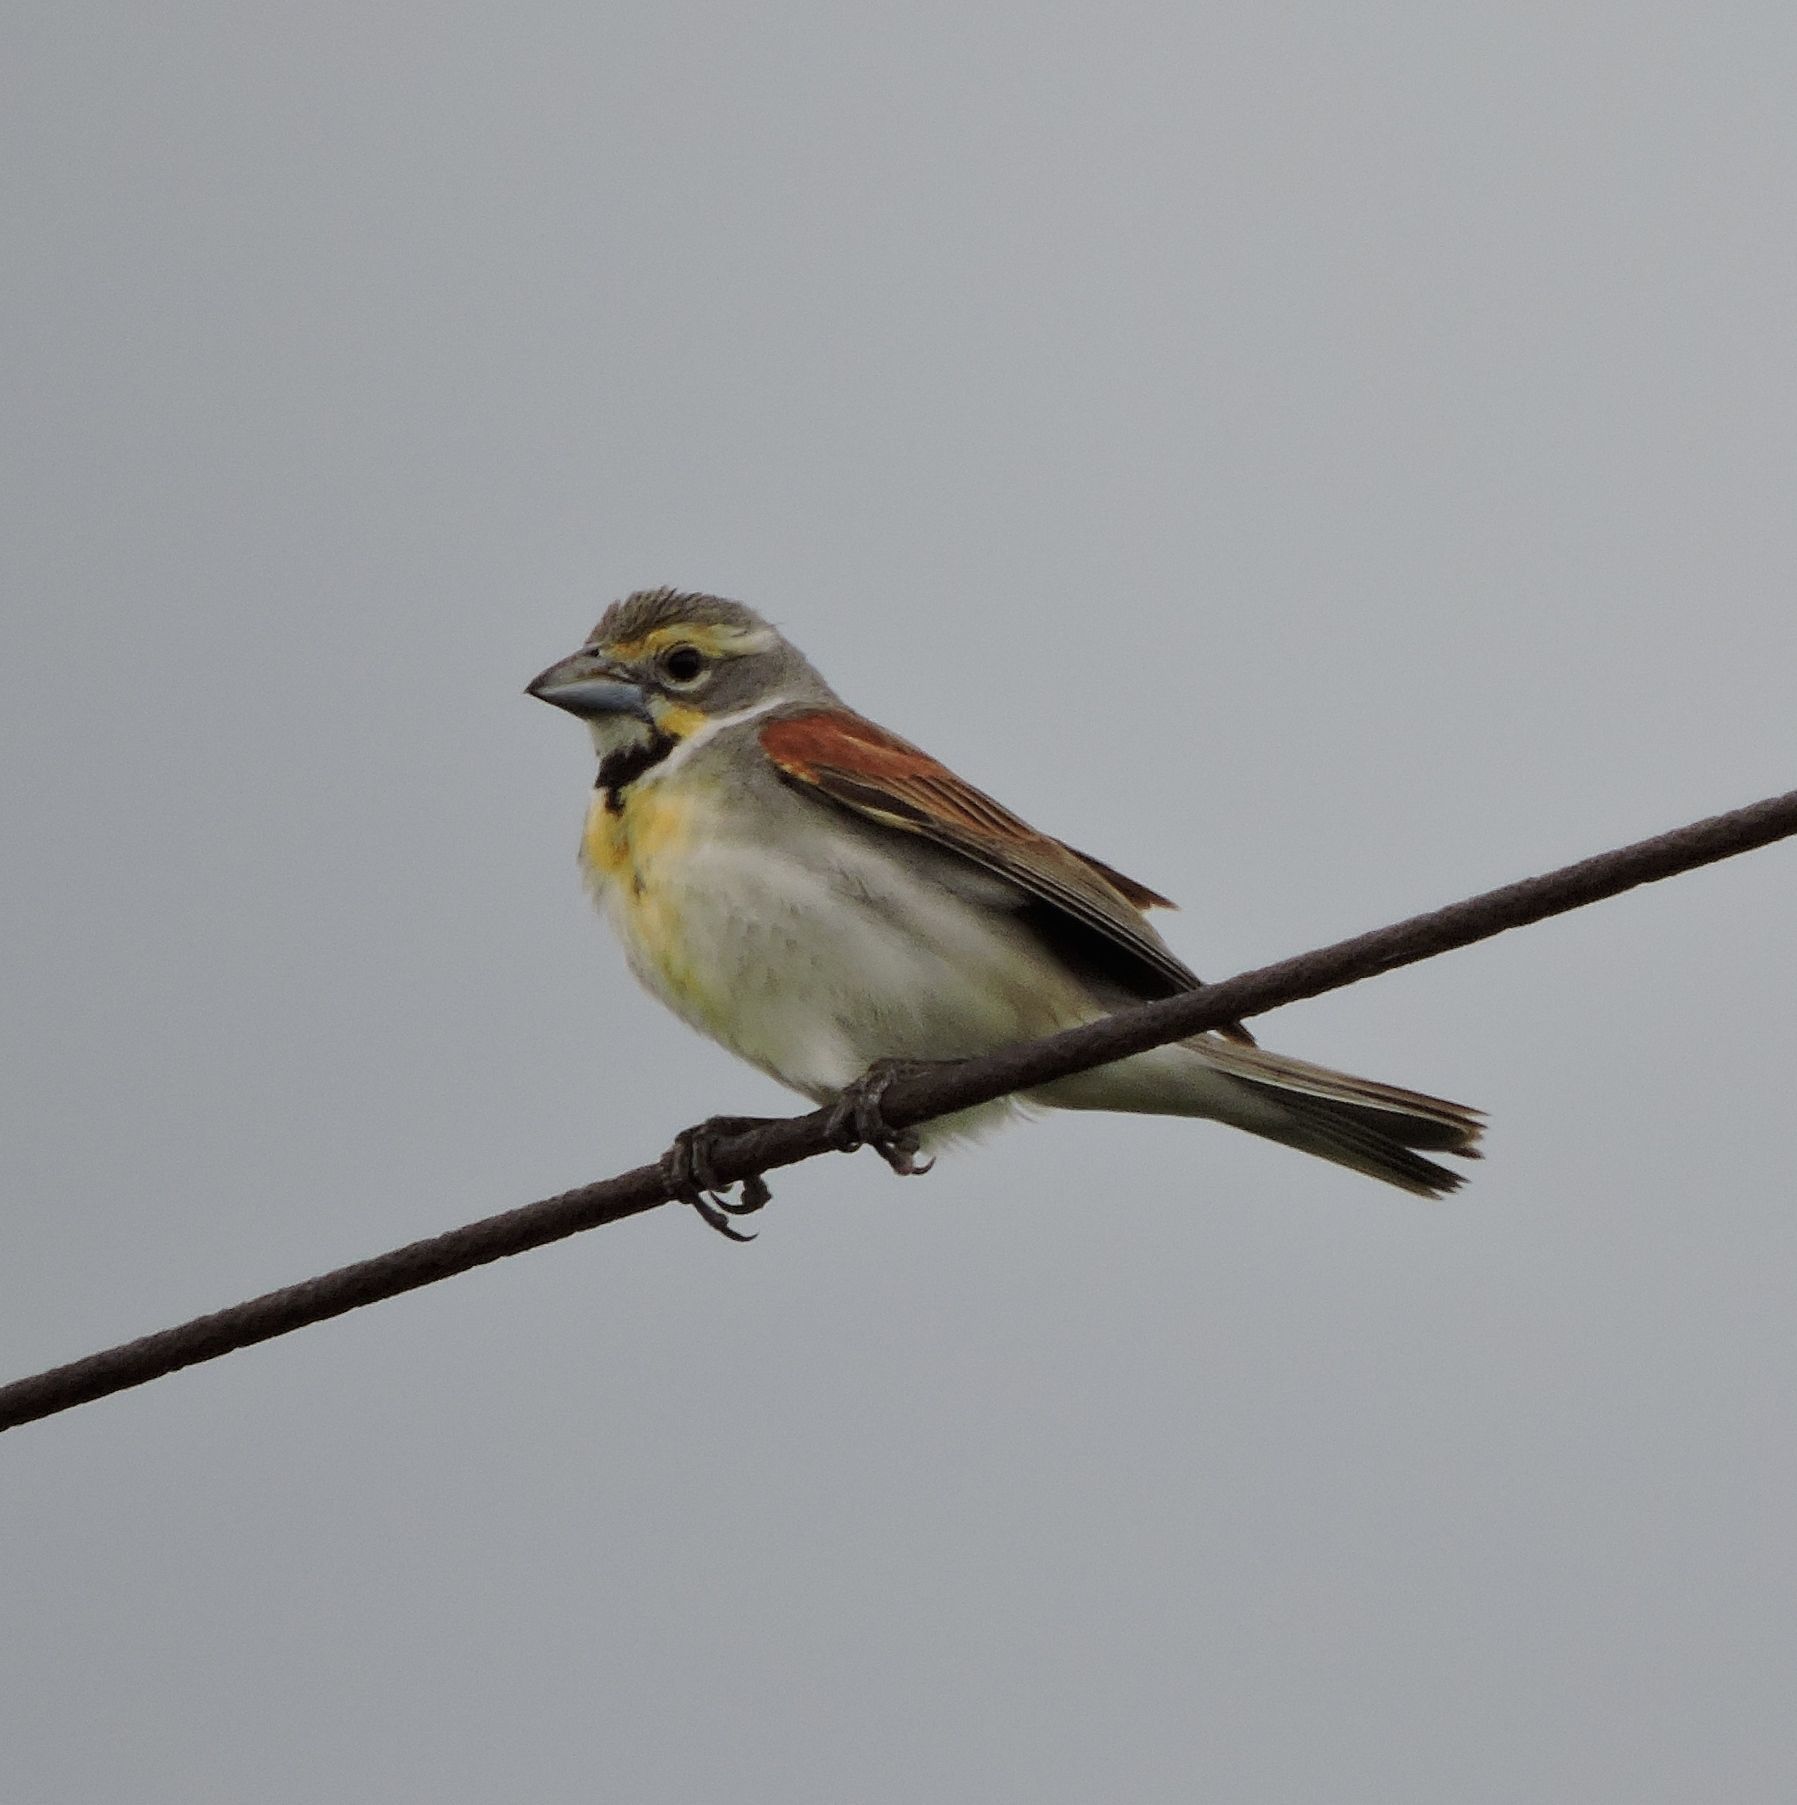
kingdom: Animalia
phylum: Chordata
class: Aves
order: Passeriformes
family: Cardinalidae
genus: Spiza
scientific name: Spiza americana
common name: Dickcissel
